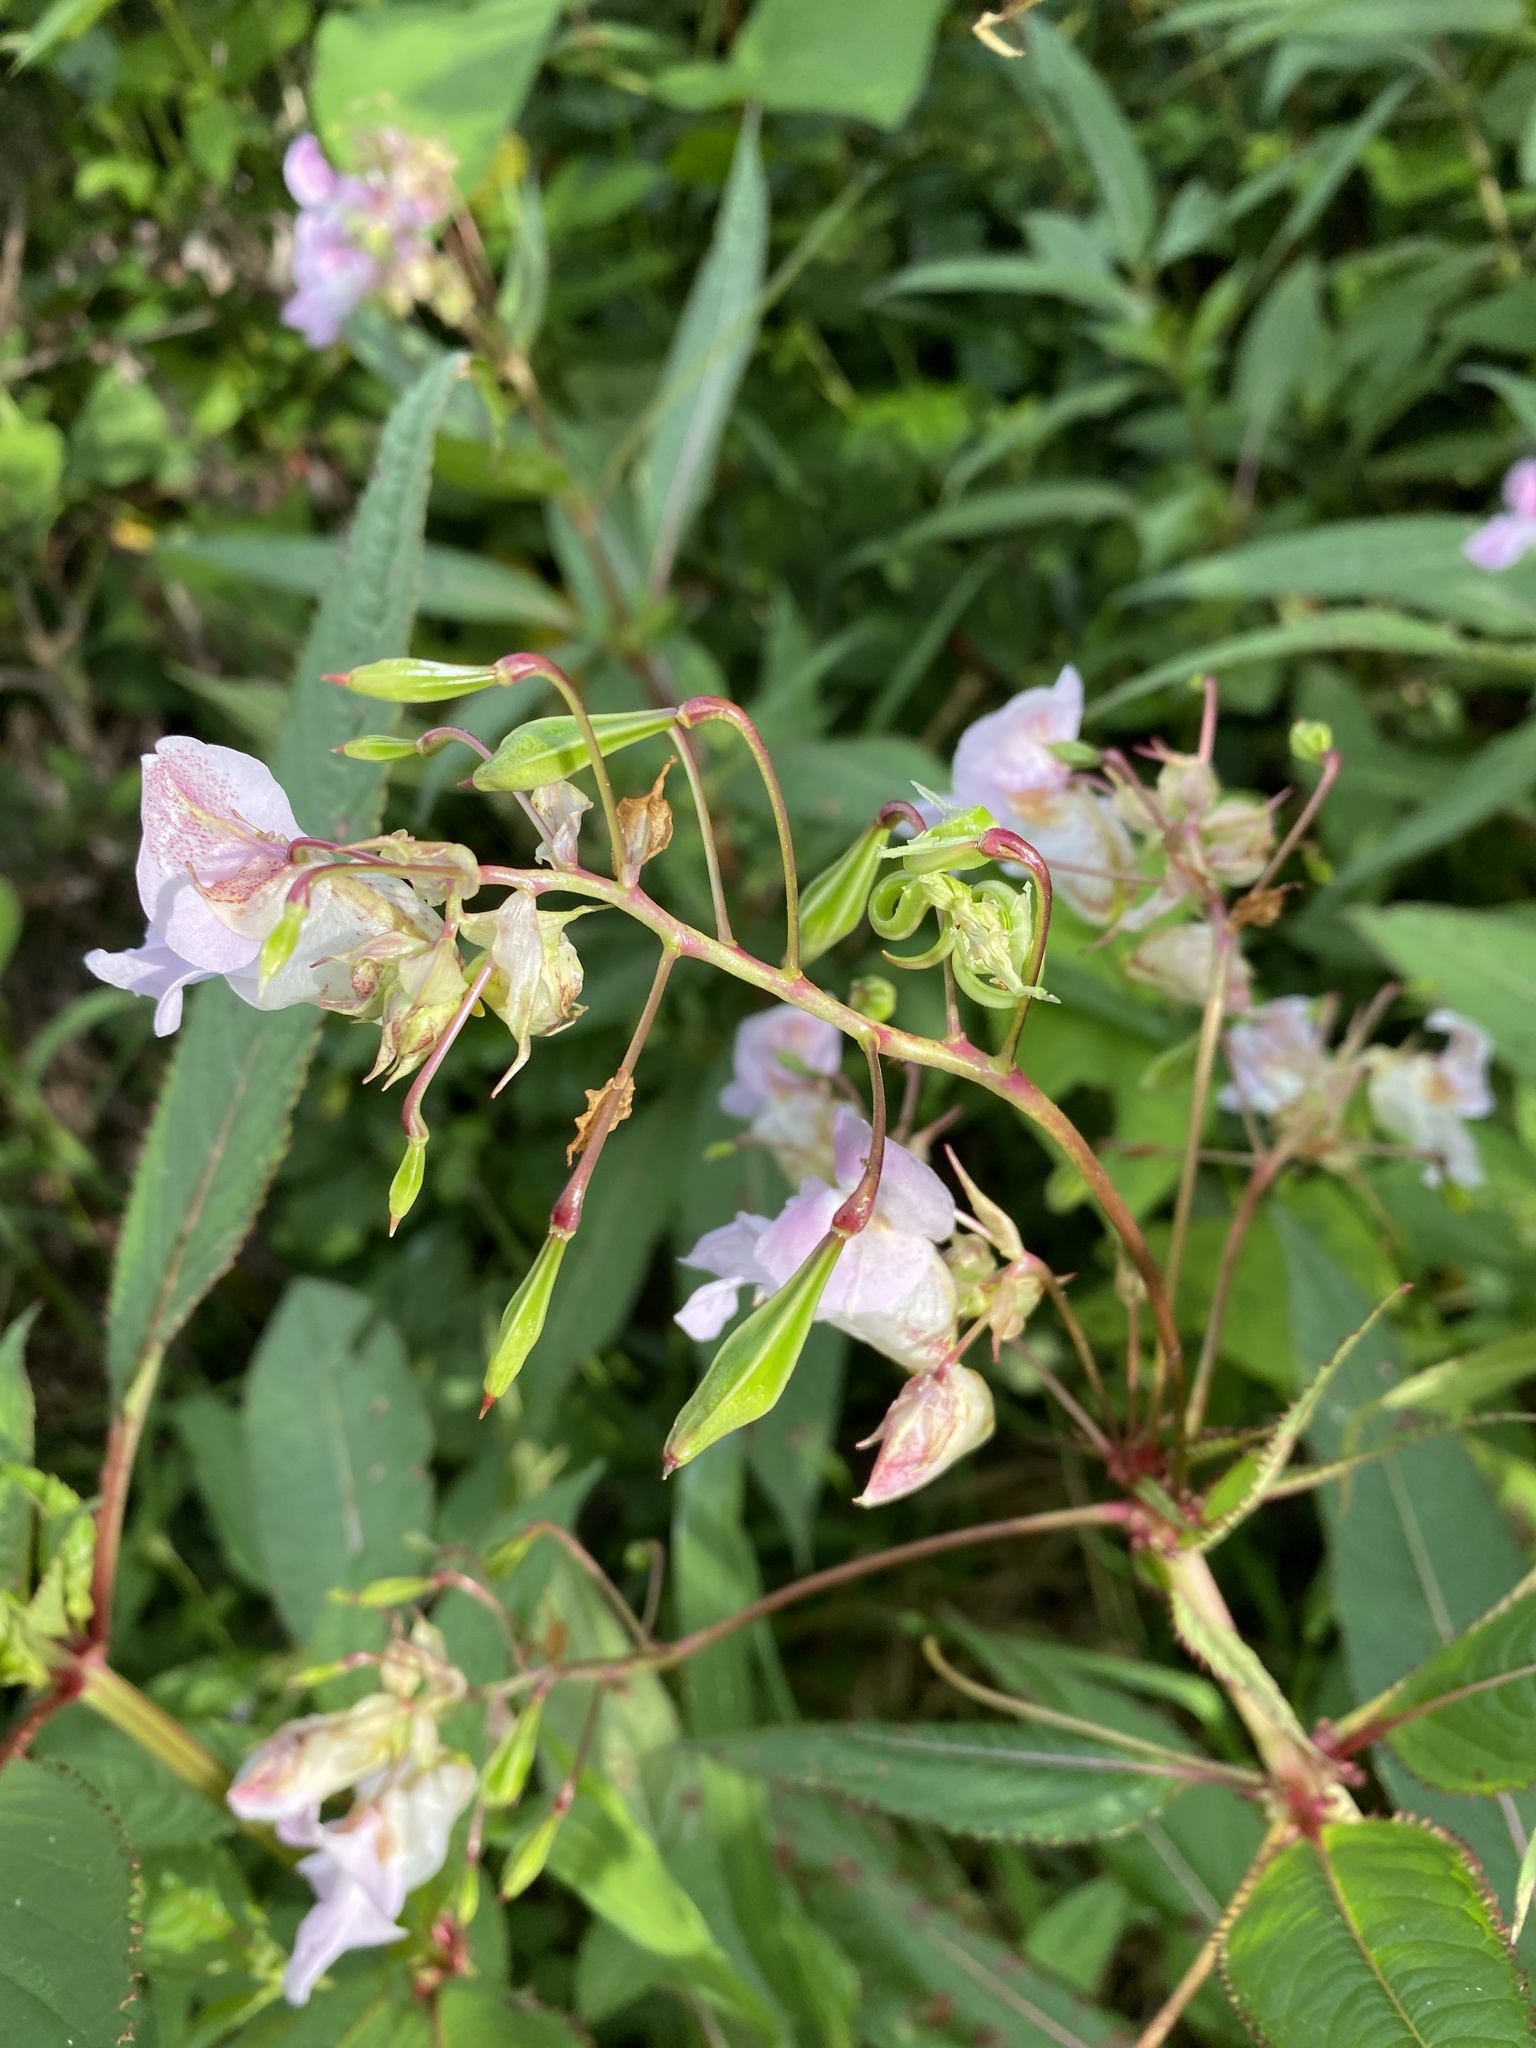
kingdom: Plantae
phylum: Tracheophyta
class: Magnoliopsida
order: Ericales
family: Balsaminaceae
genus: Impatiens
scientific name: Impatiens glandulifera
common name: Himalayan balsam
